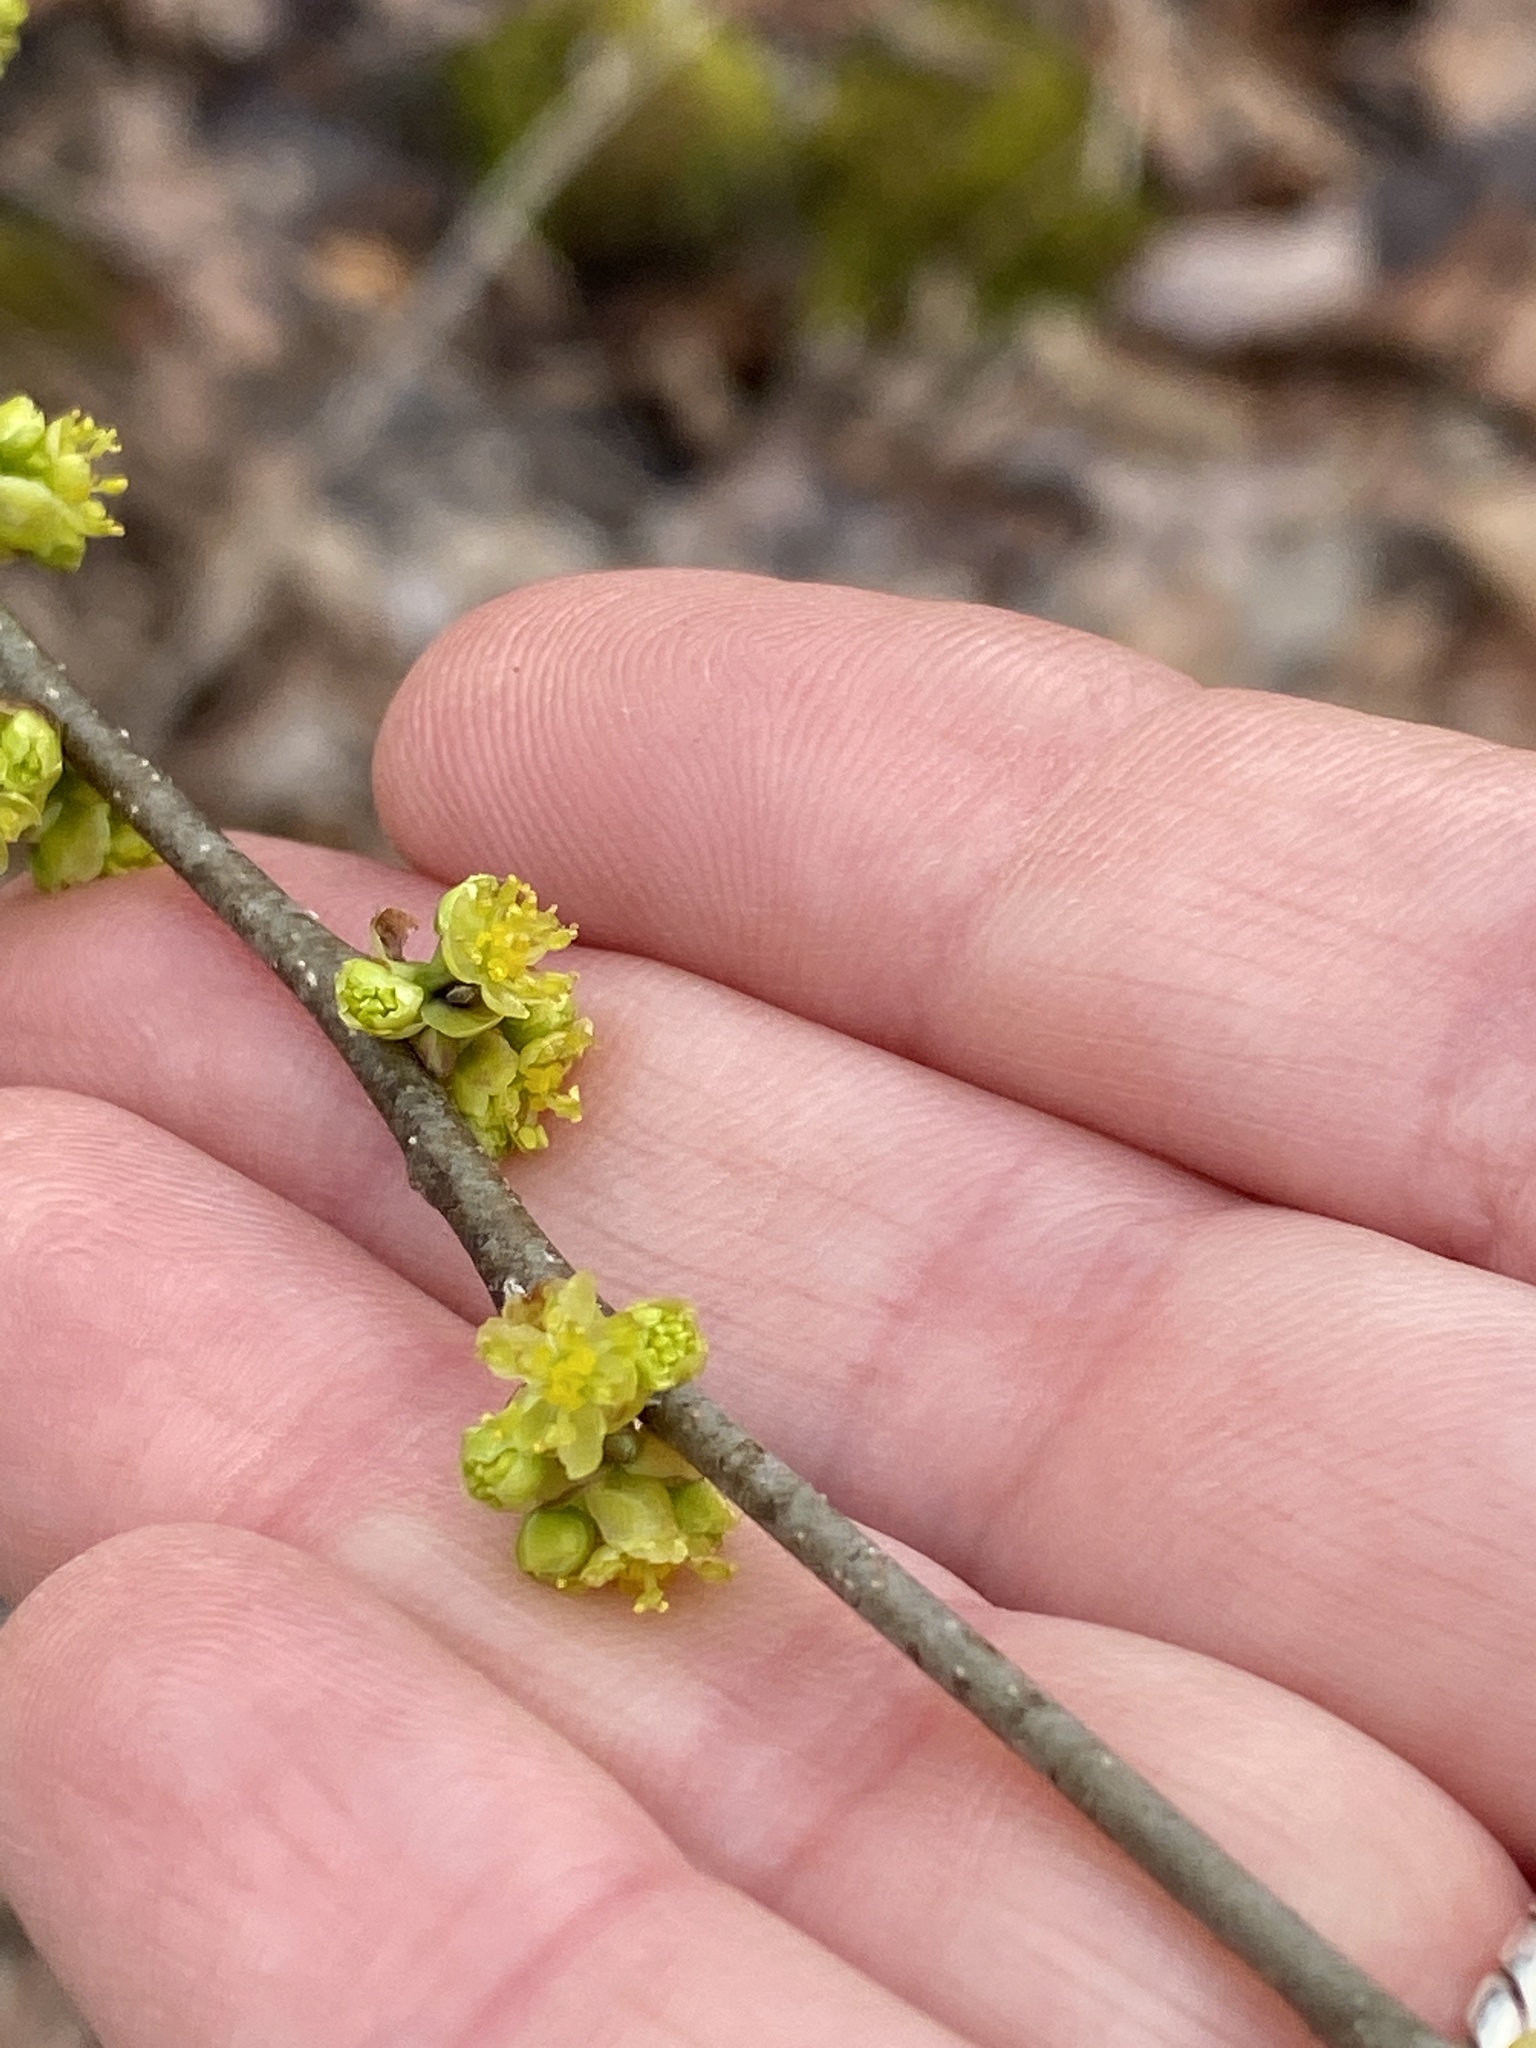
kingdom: Plantae
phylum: Tracheophyta
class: Magnoliopsida
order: Laurales
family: Lauraceae
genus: Lindera
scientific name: Lindera benzoin
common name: Spicebush
